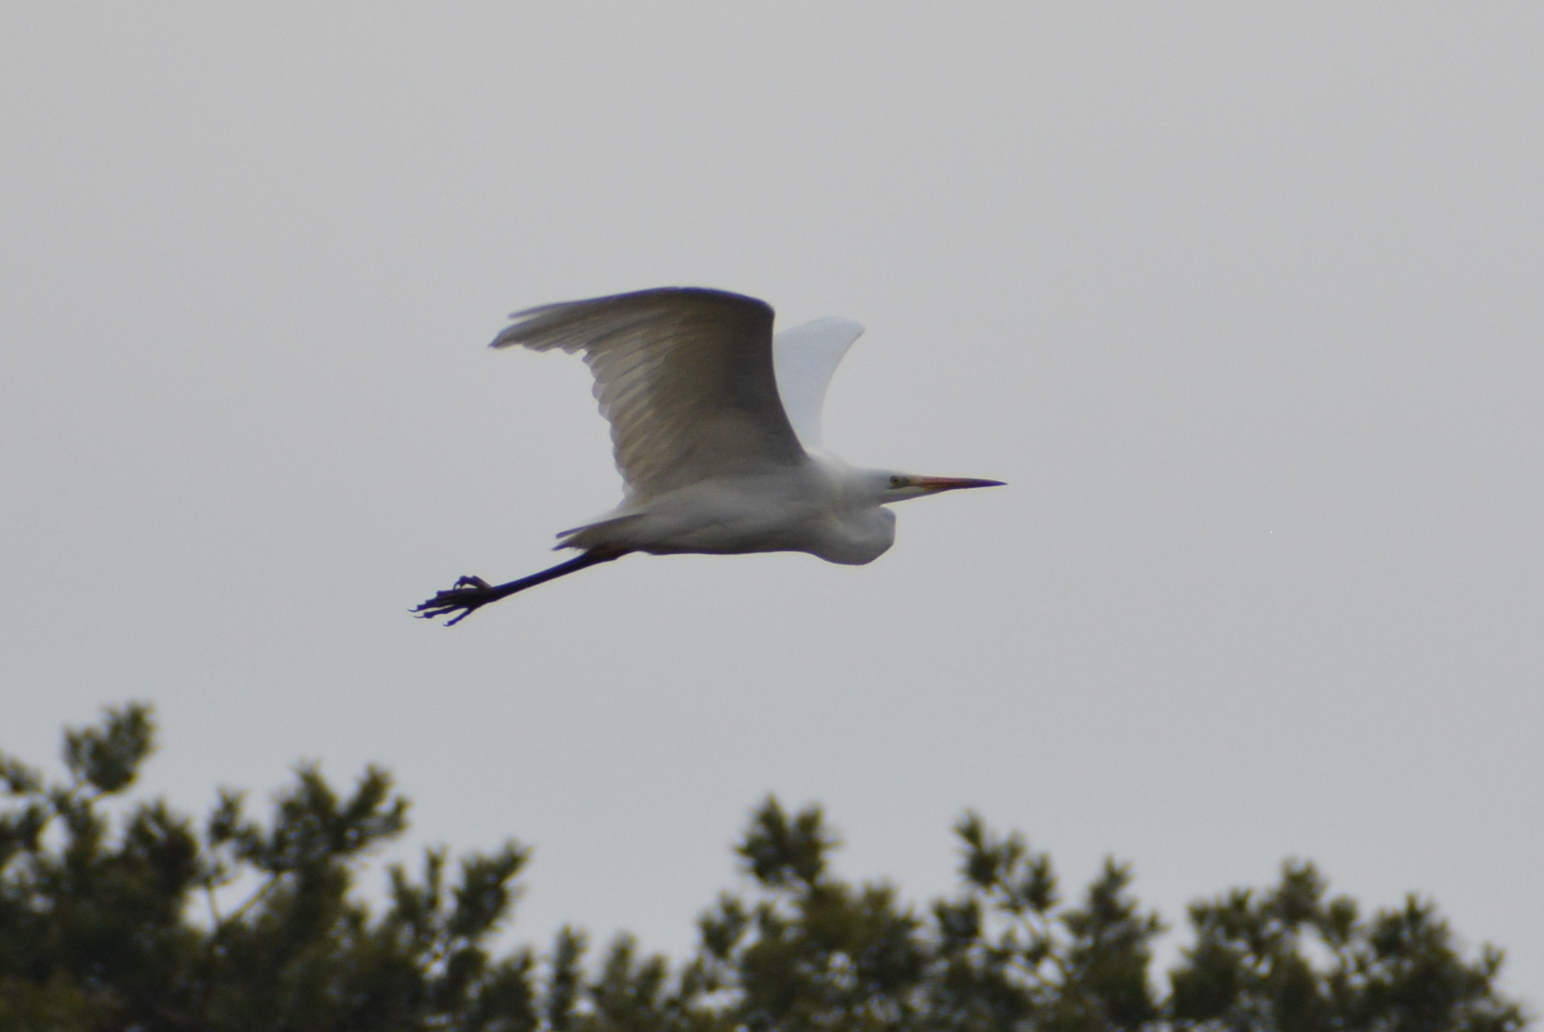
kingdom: Animalia
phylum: Chordata
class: Aves
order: Pelecaniformes
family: Ardeidae
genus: Ardea
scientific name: Ardea alba
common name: Great egret
